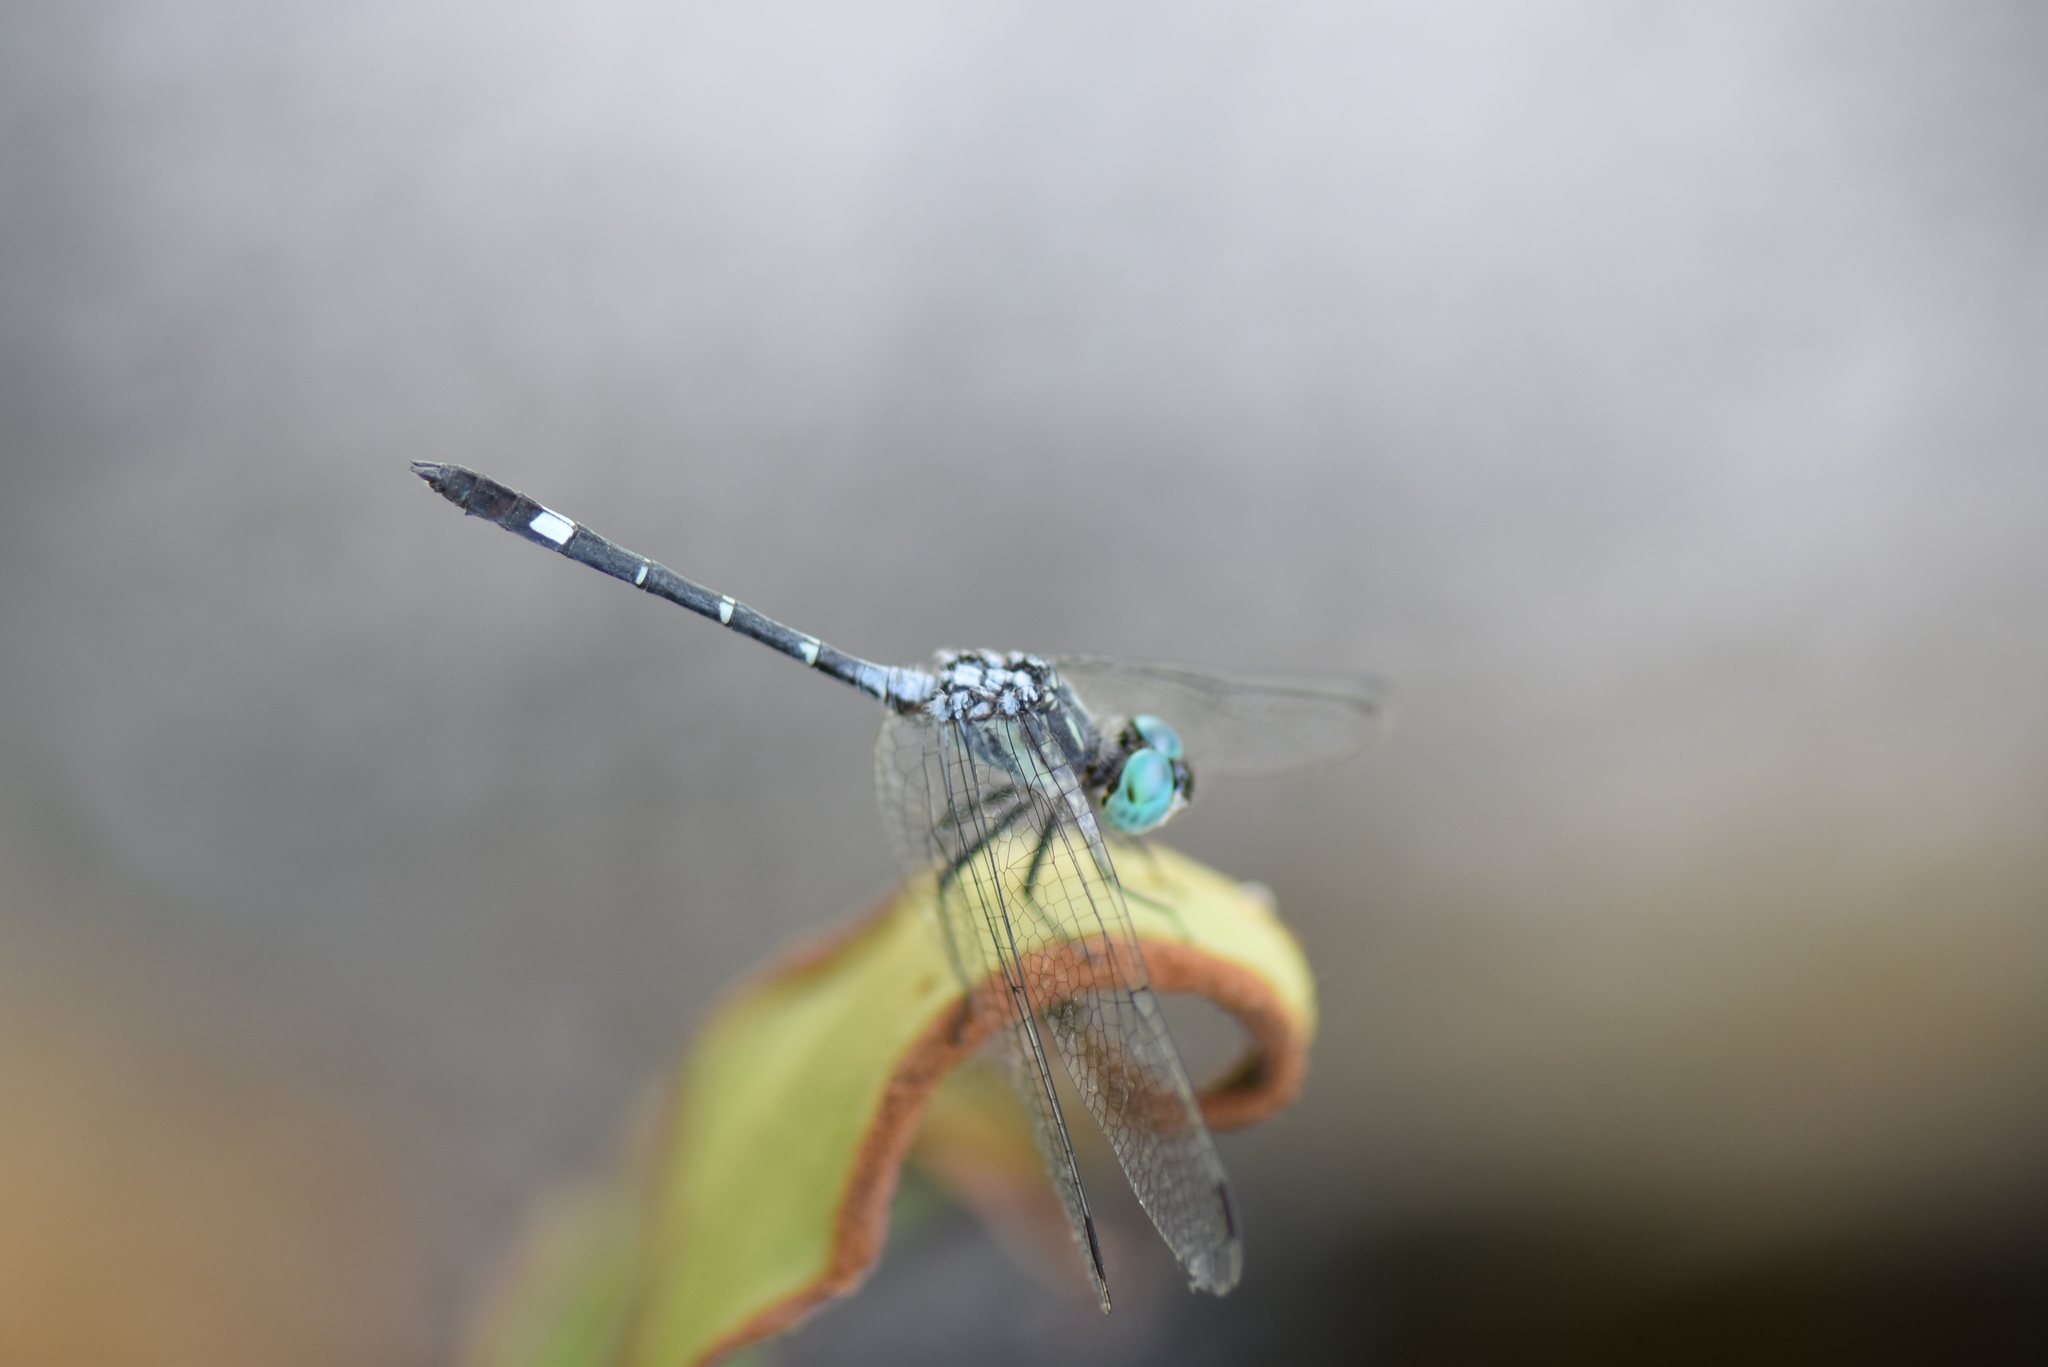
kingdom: Animalia
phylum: Arthropoda
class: Insecta
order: Odonata
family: Libellulidae
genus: Micrathyria
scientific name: Micrathyria hypodidyma
